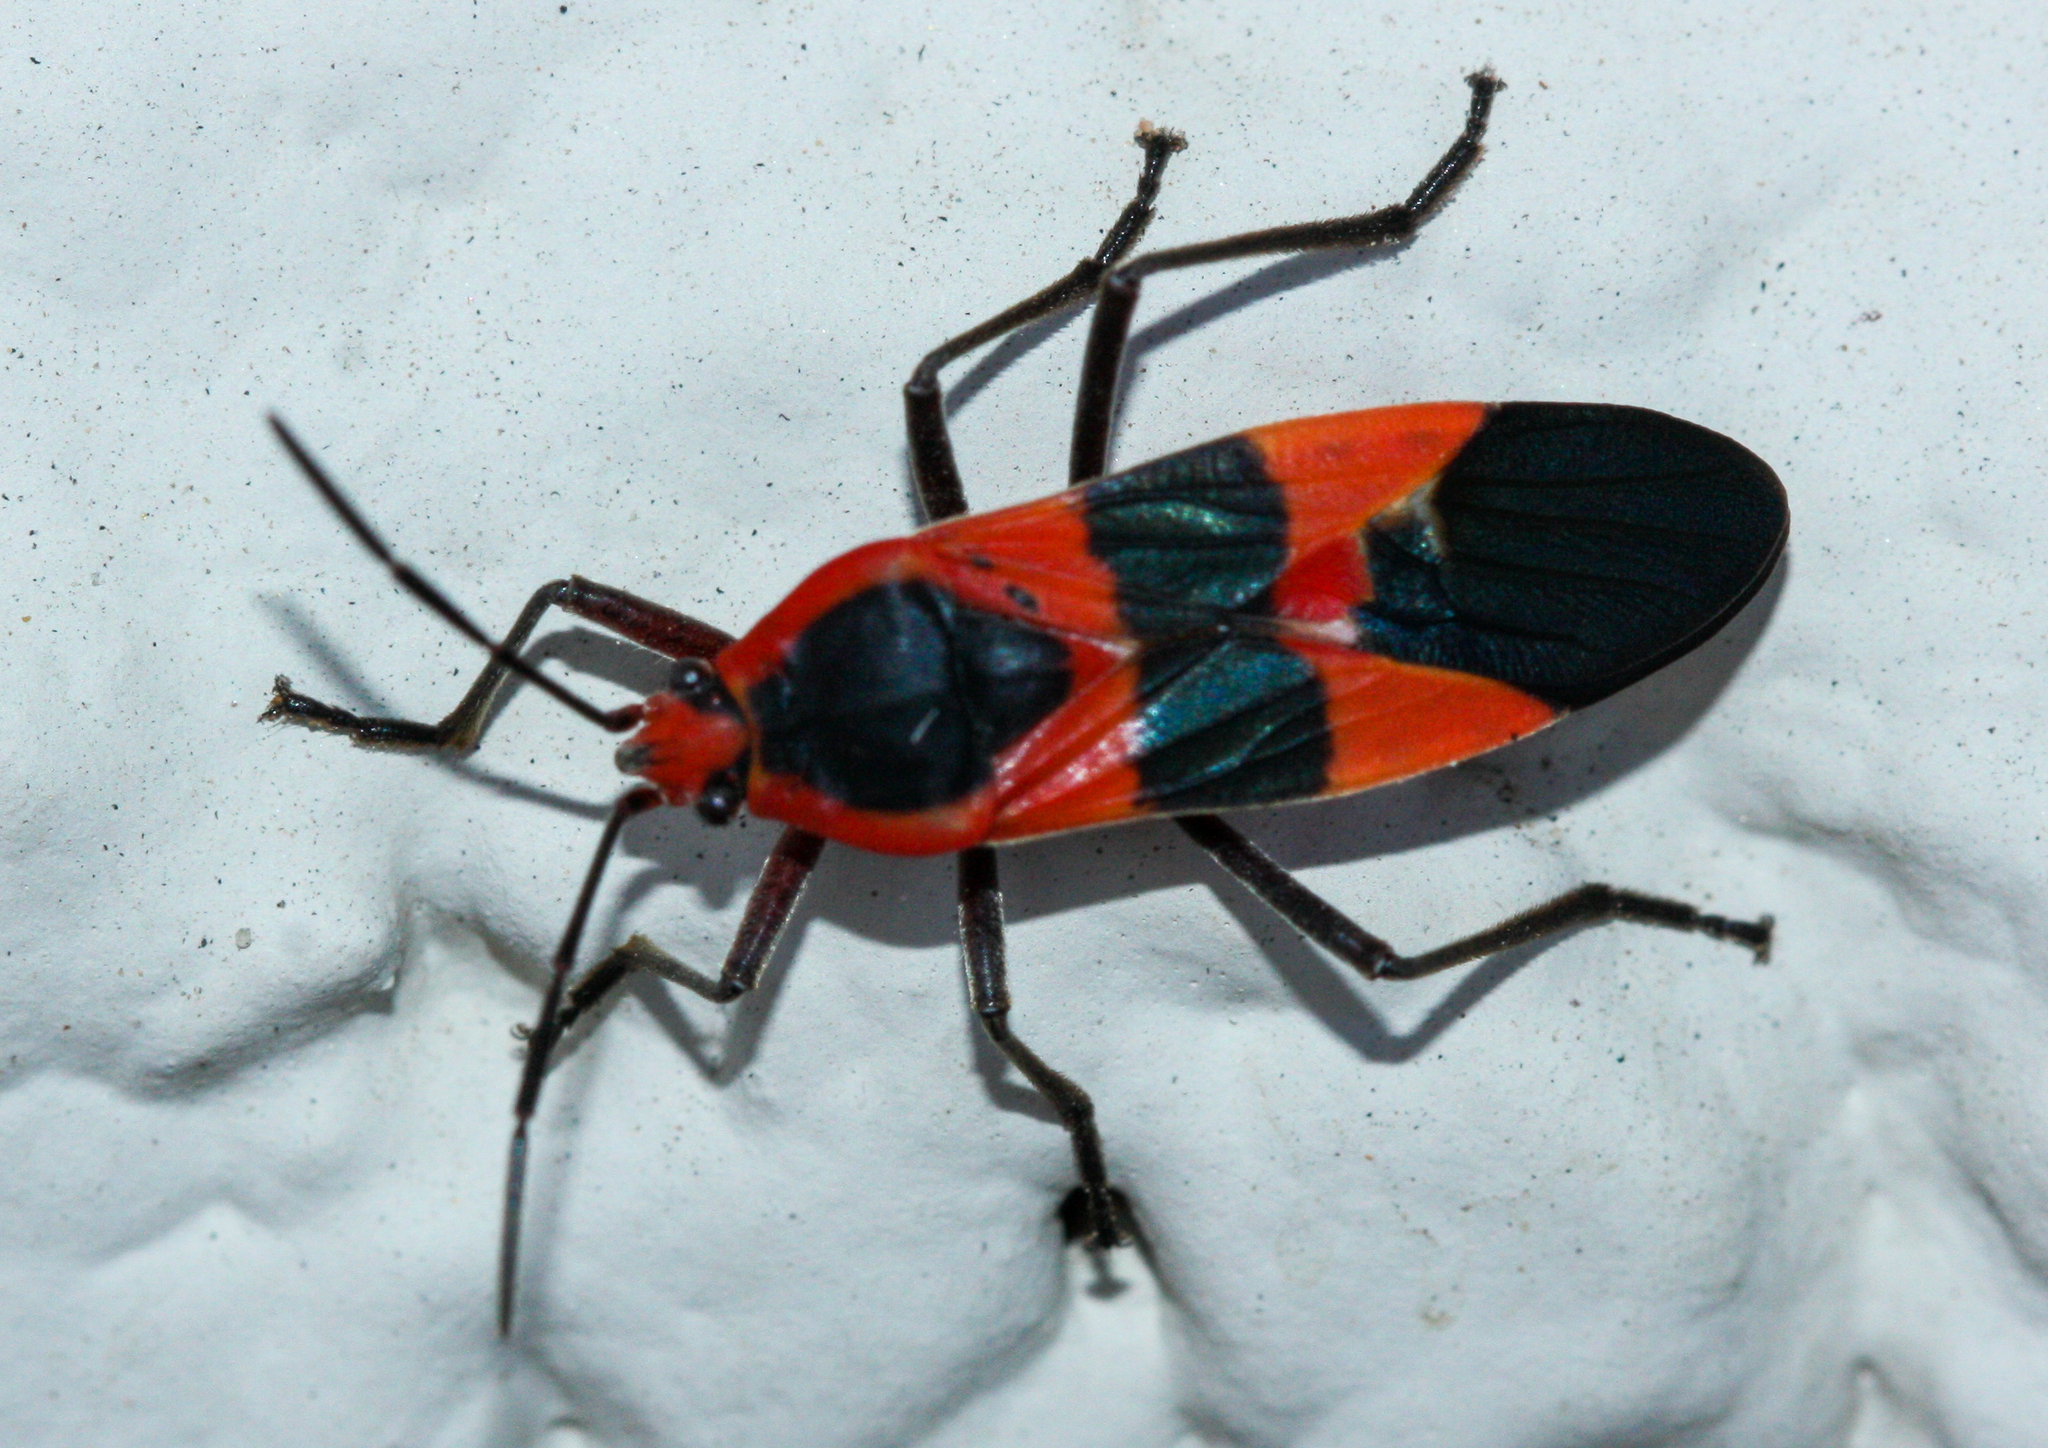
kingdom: Animalia
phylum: Arthropoda
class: Insecta
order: Hemiptera
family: Lygaeidae
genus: Oncopeltus
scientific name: Oncopeltus fasciatus
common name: Large milkweed bug
